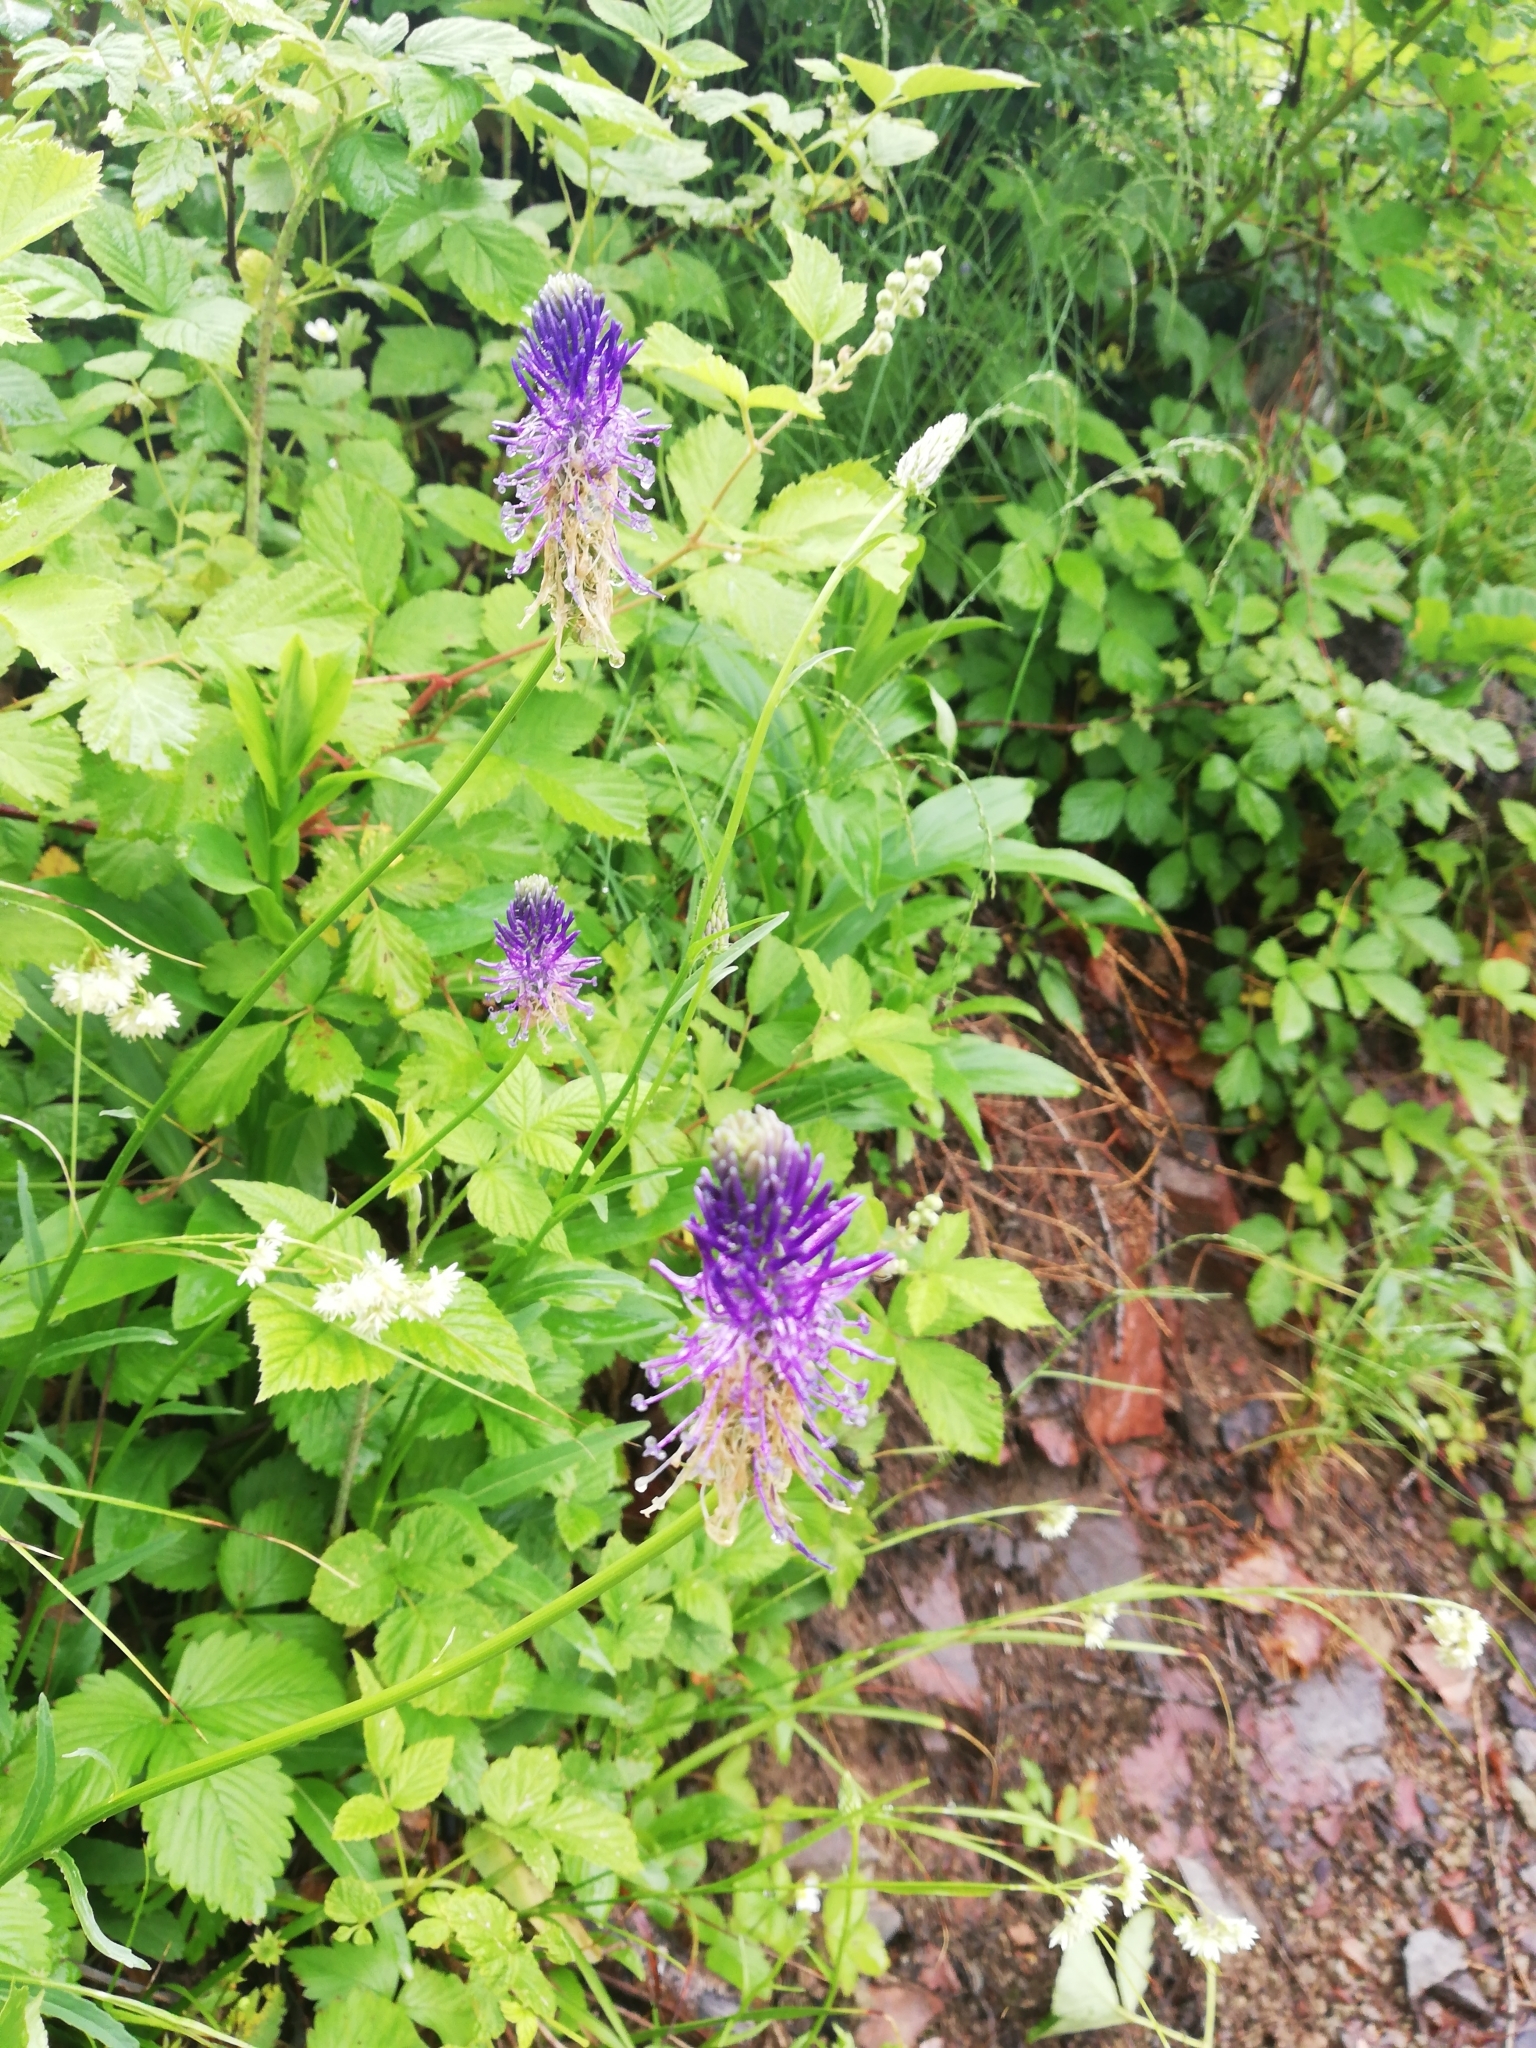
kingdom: Plantae
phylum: Tracheophyta
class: Magnoliopsida
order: Asterales
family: Campanulaceae
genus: Phyteuma
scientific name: Phyteuma betonicifolium
